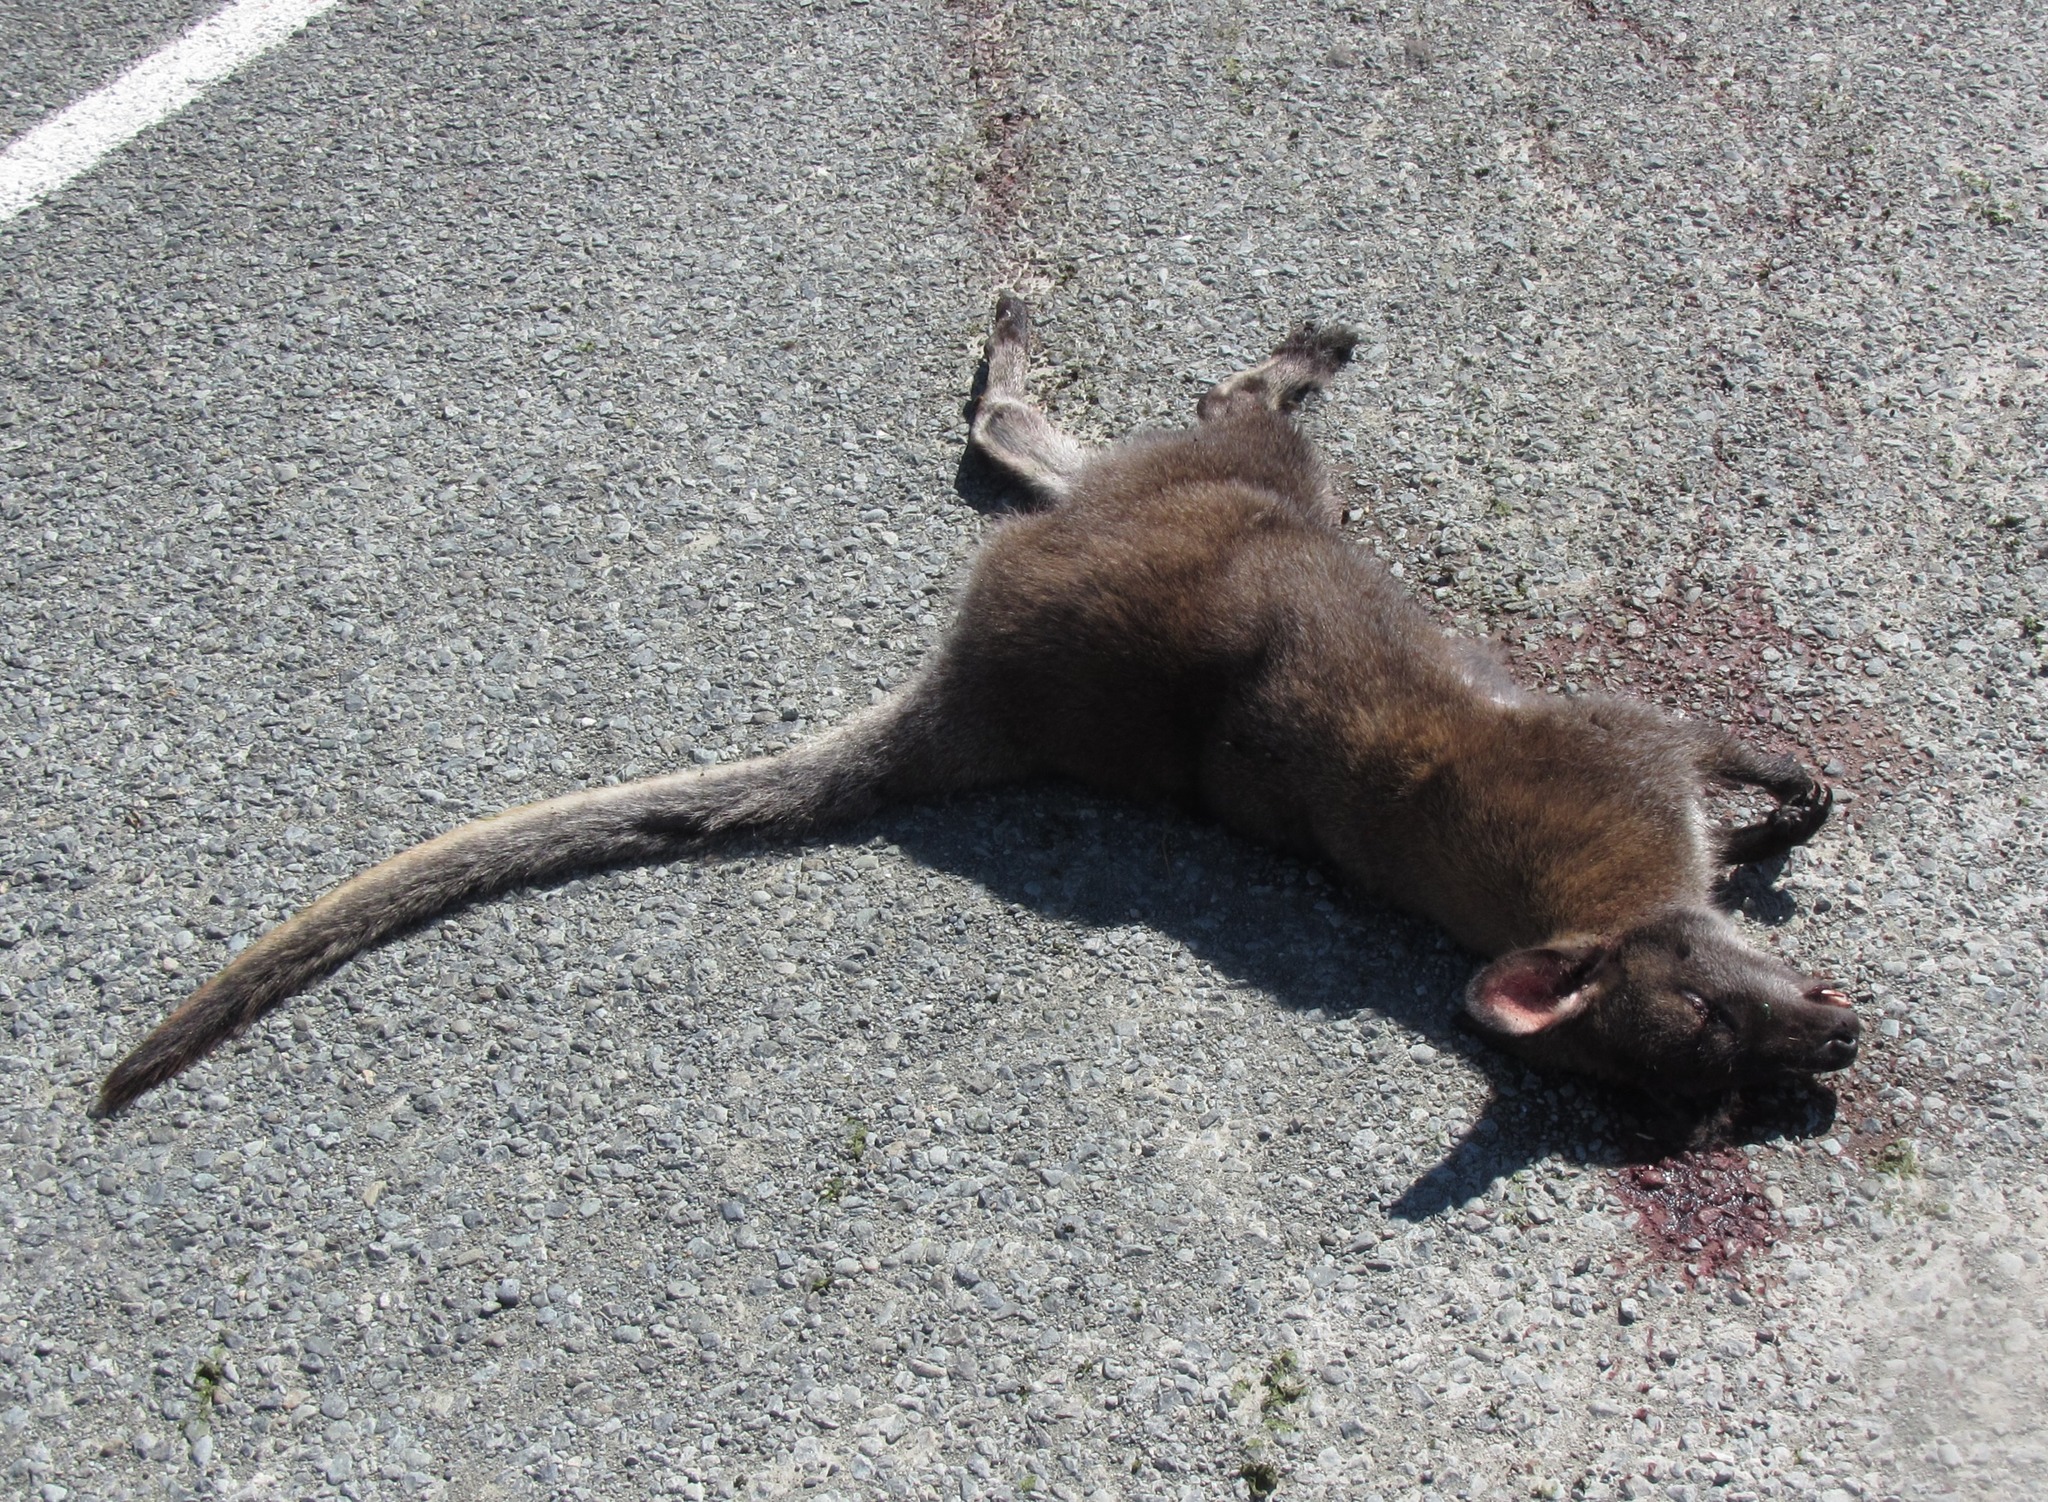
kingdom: Animalia
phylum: Chordata
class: Mammalia
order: Diprotodontia
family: Macropodidae
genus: Notamacropus
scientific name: Notamacropus rufogriseus
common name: Red-necked wallaby
